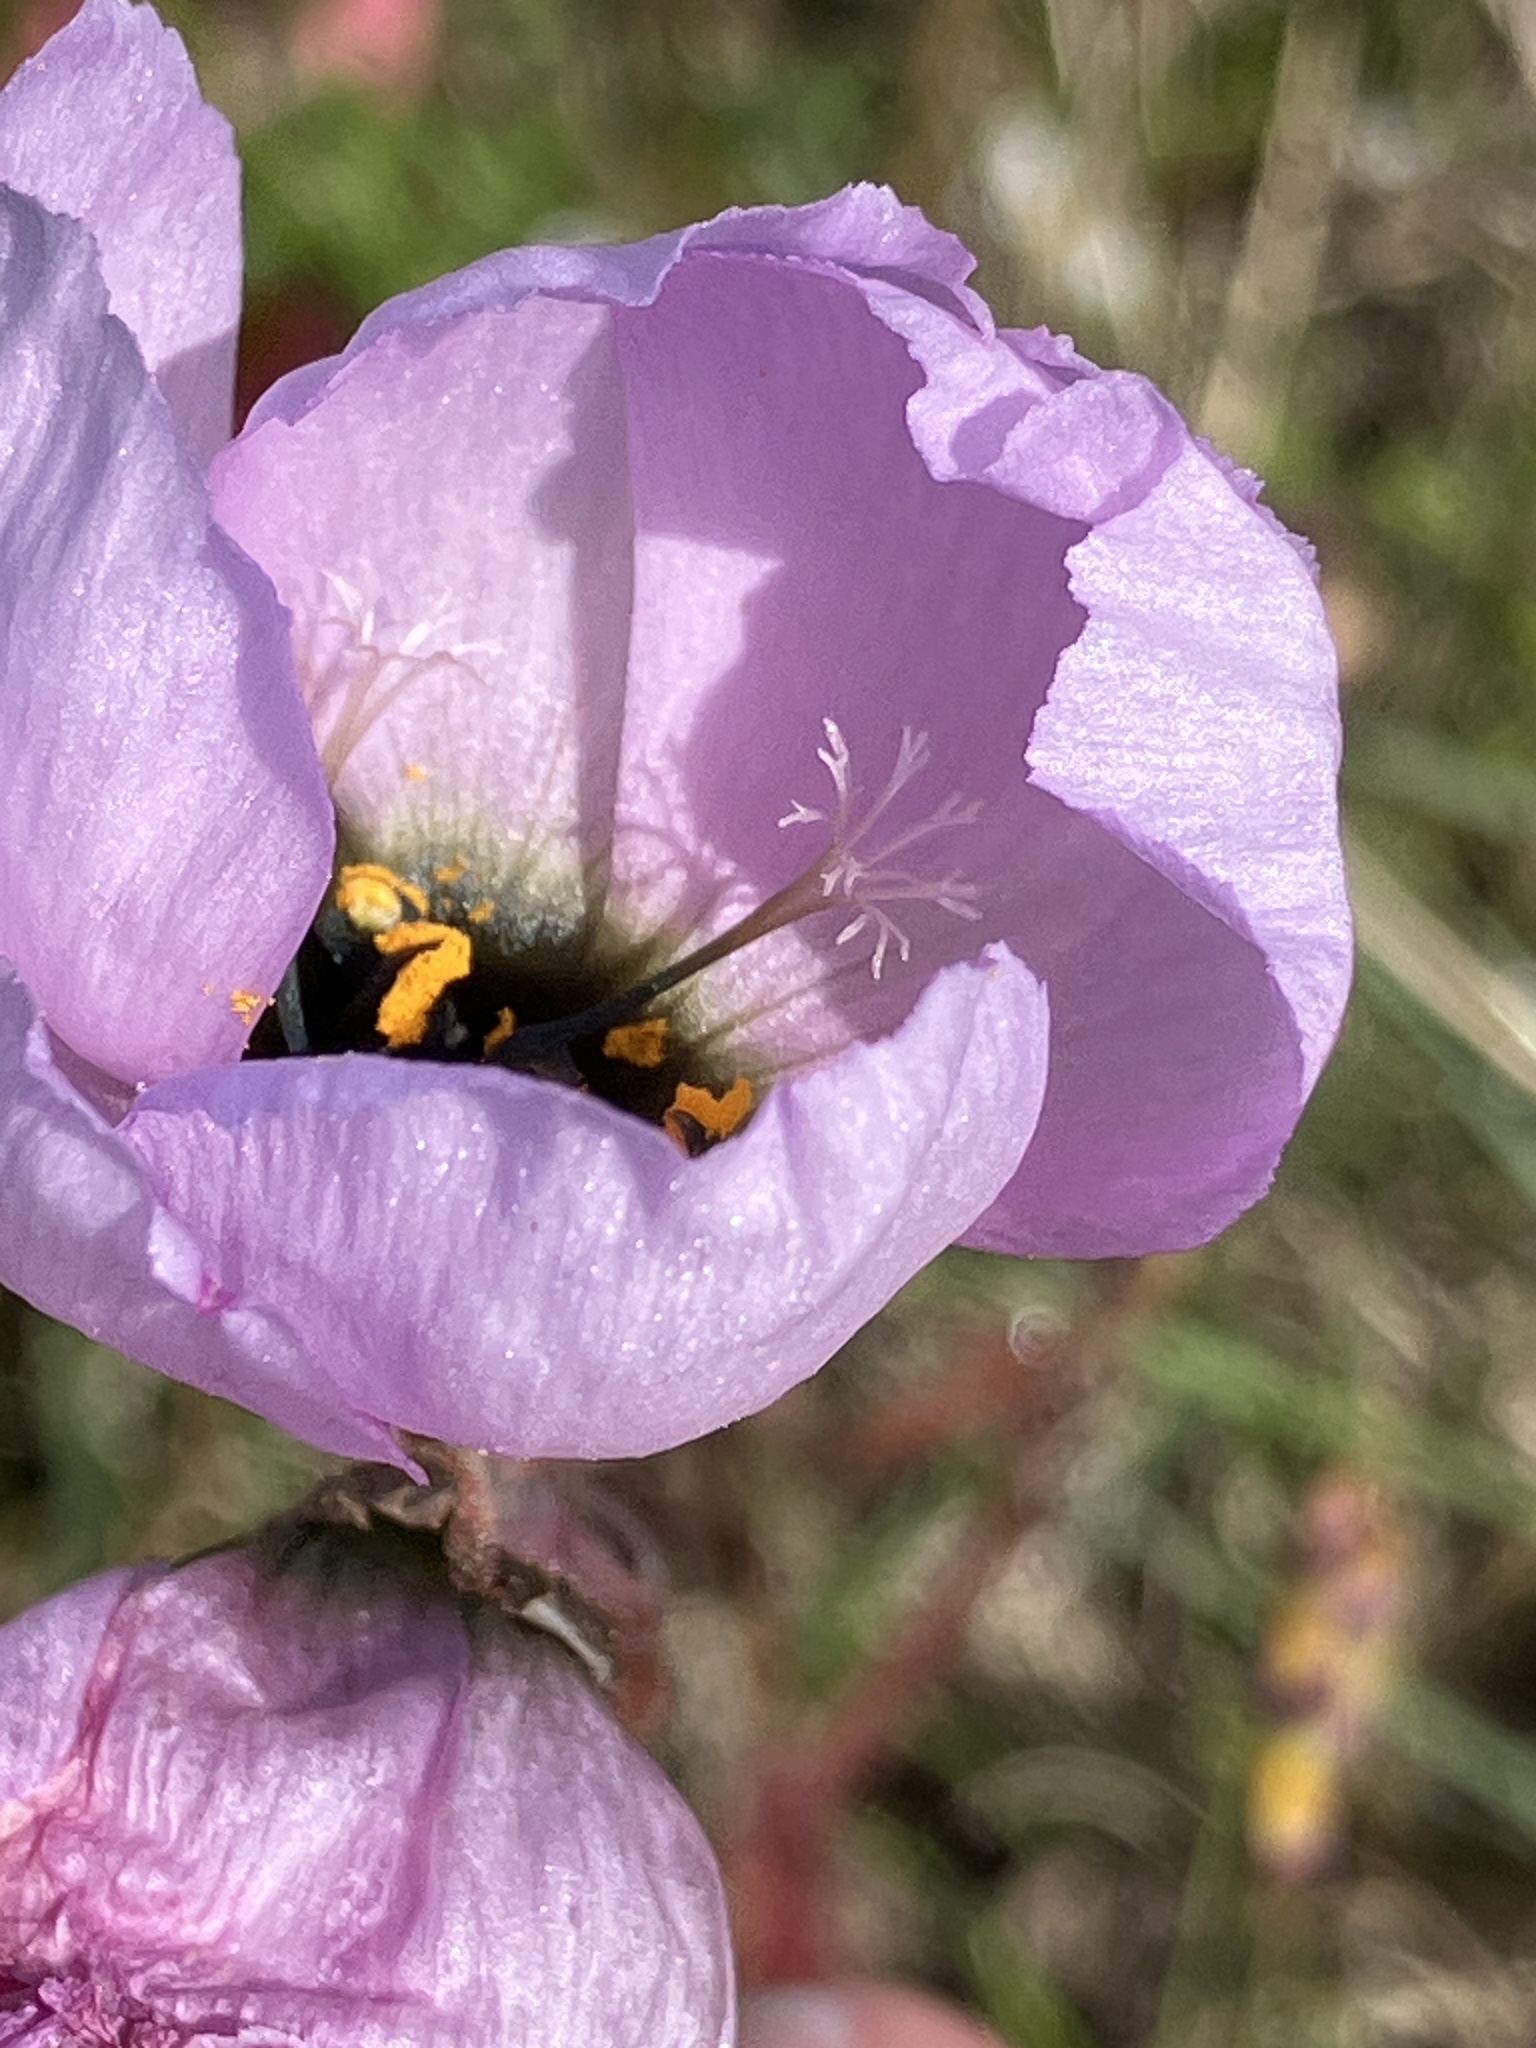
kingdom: Plantae
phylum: Tracheophyta
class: Magnoliopsida
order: Caryophyllales
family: Droseraceae
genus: Drosera
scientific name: Drosera cistiflora
